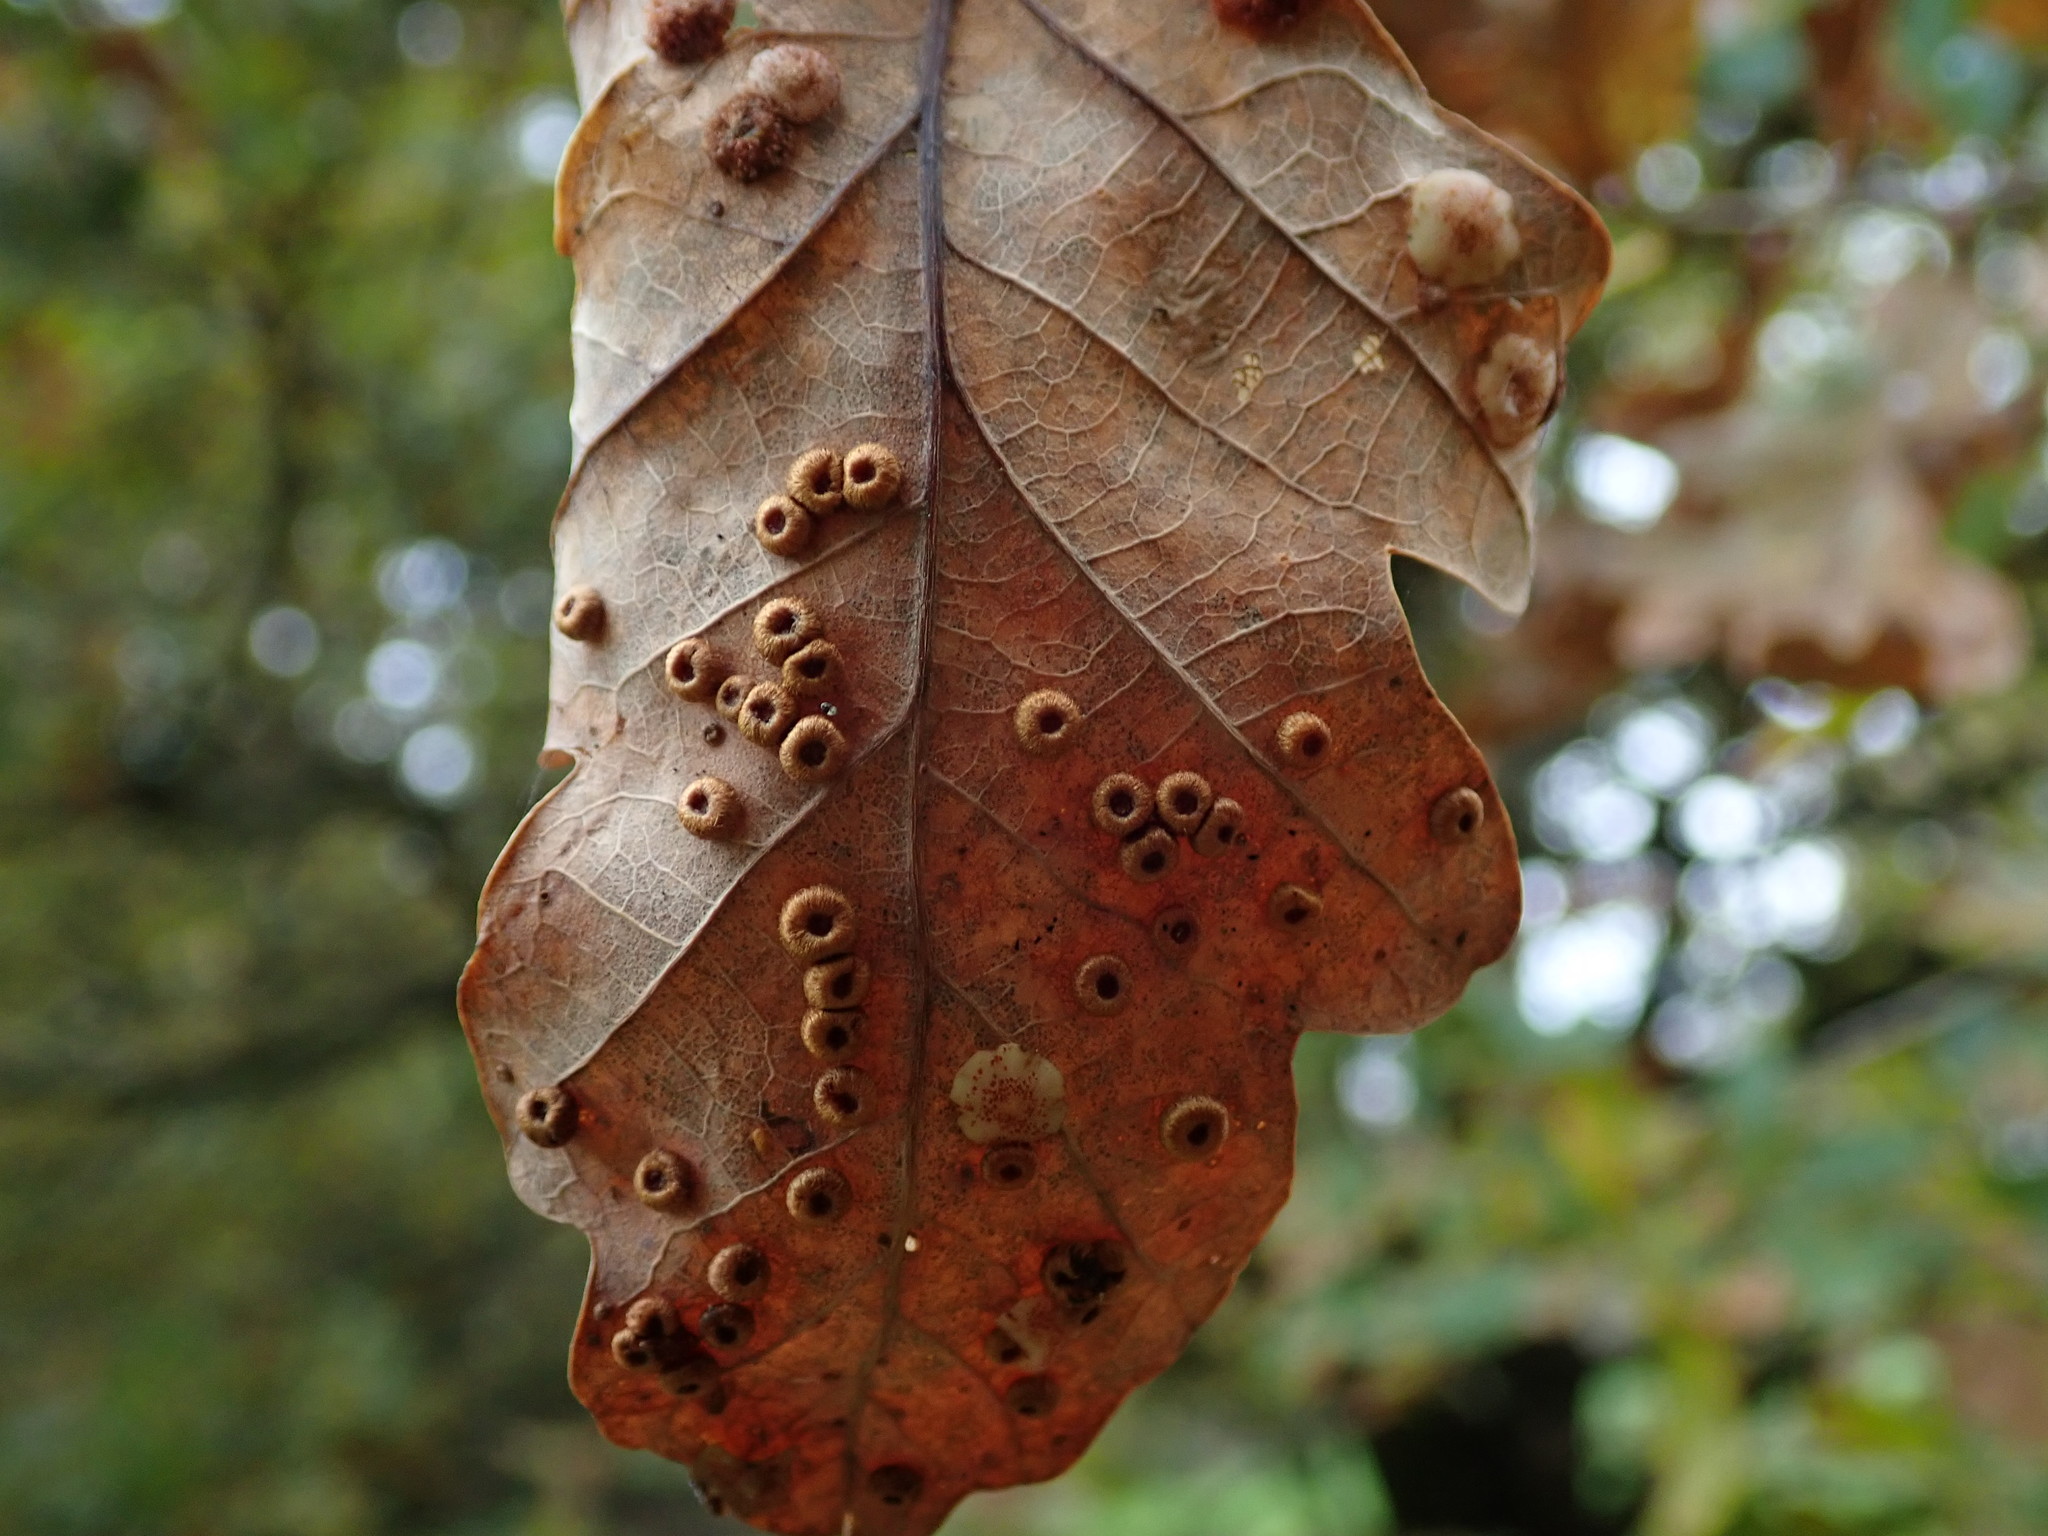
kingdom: Animalia
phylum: Arthropoda
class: Insecta
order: Hymenoptera
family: Cynipidae
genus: Neuroterus
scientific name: Neuroterus numismalis
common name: Silk-button spangle gall
